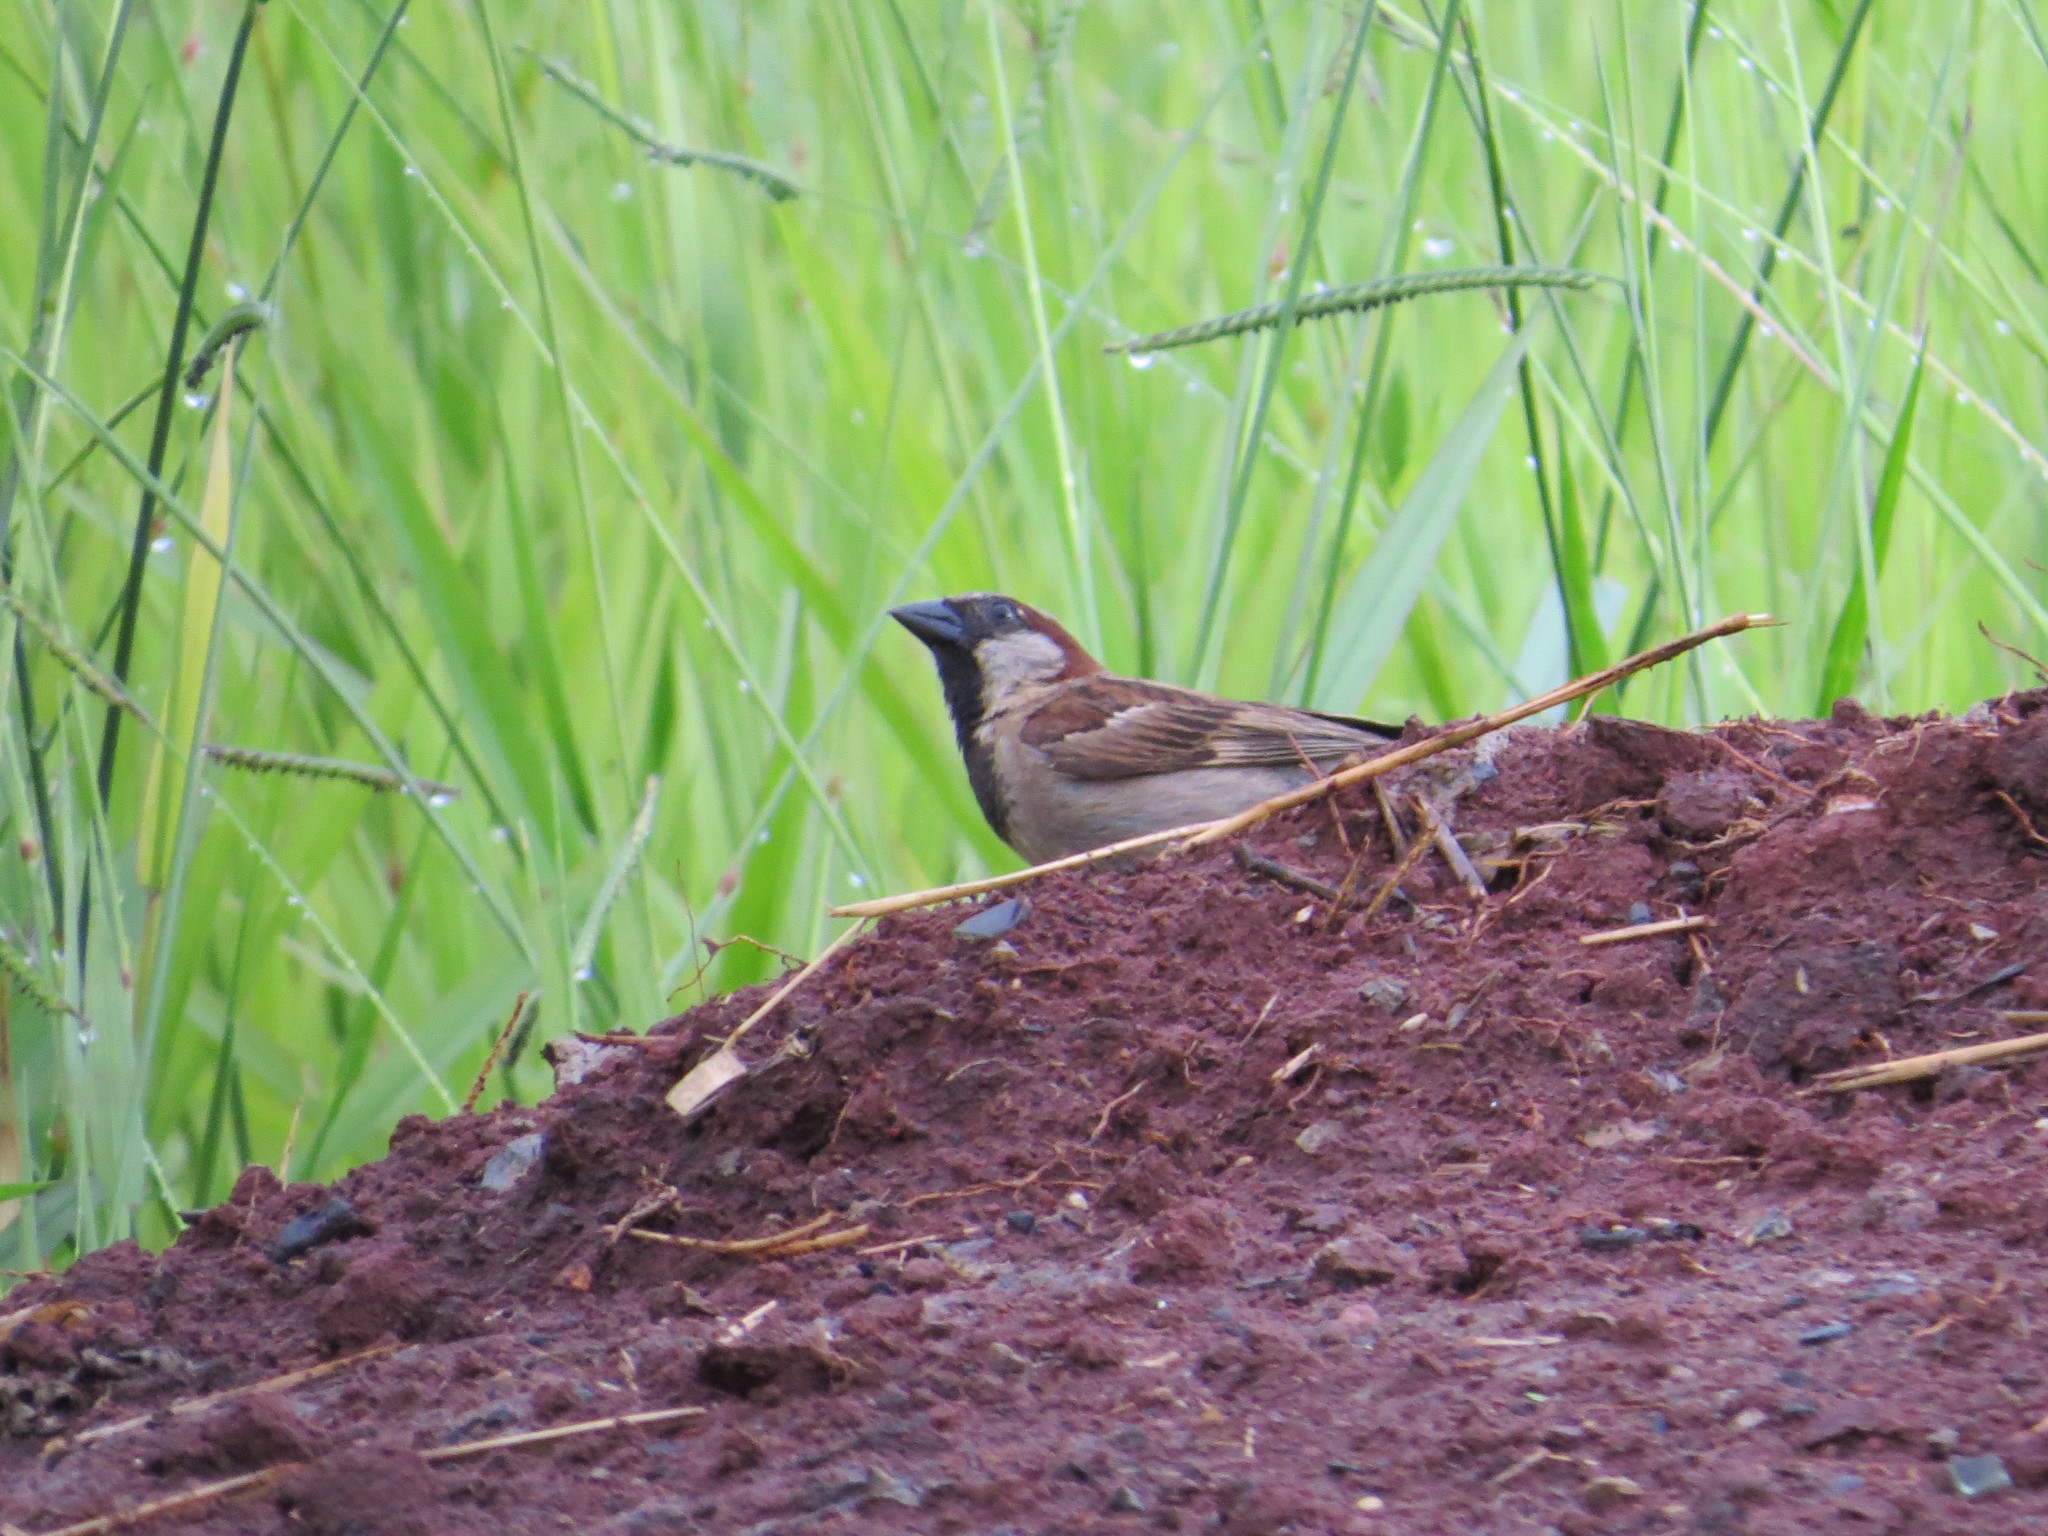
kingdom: Animalia
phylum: Chordata
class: Aves
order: Passeriformes
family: Passeridae
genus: Passer
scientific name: Passer domesticus
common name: House sparrow
